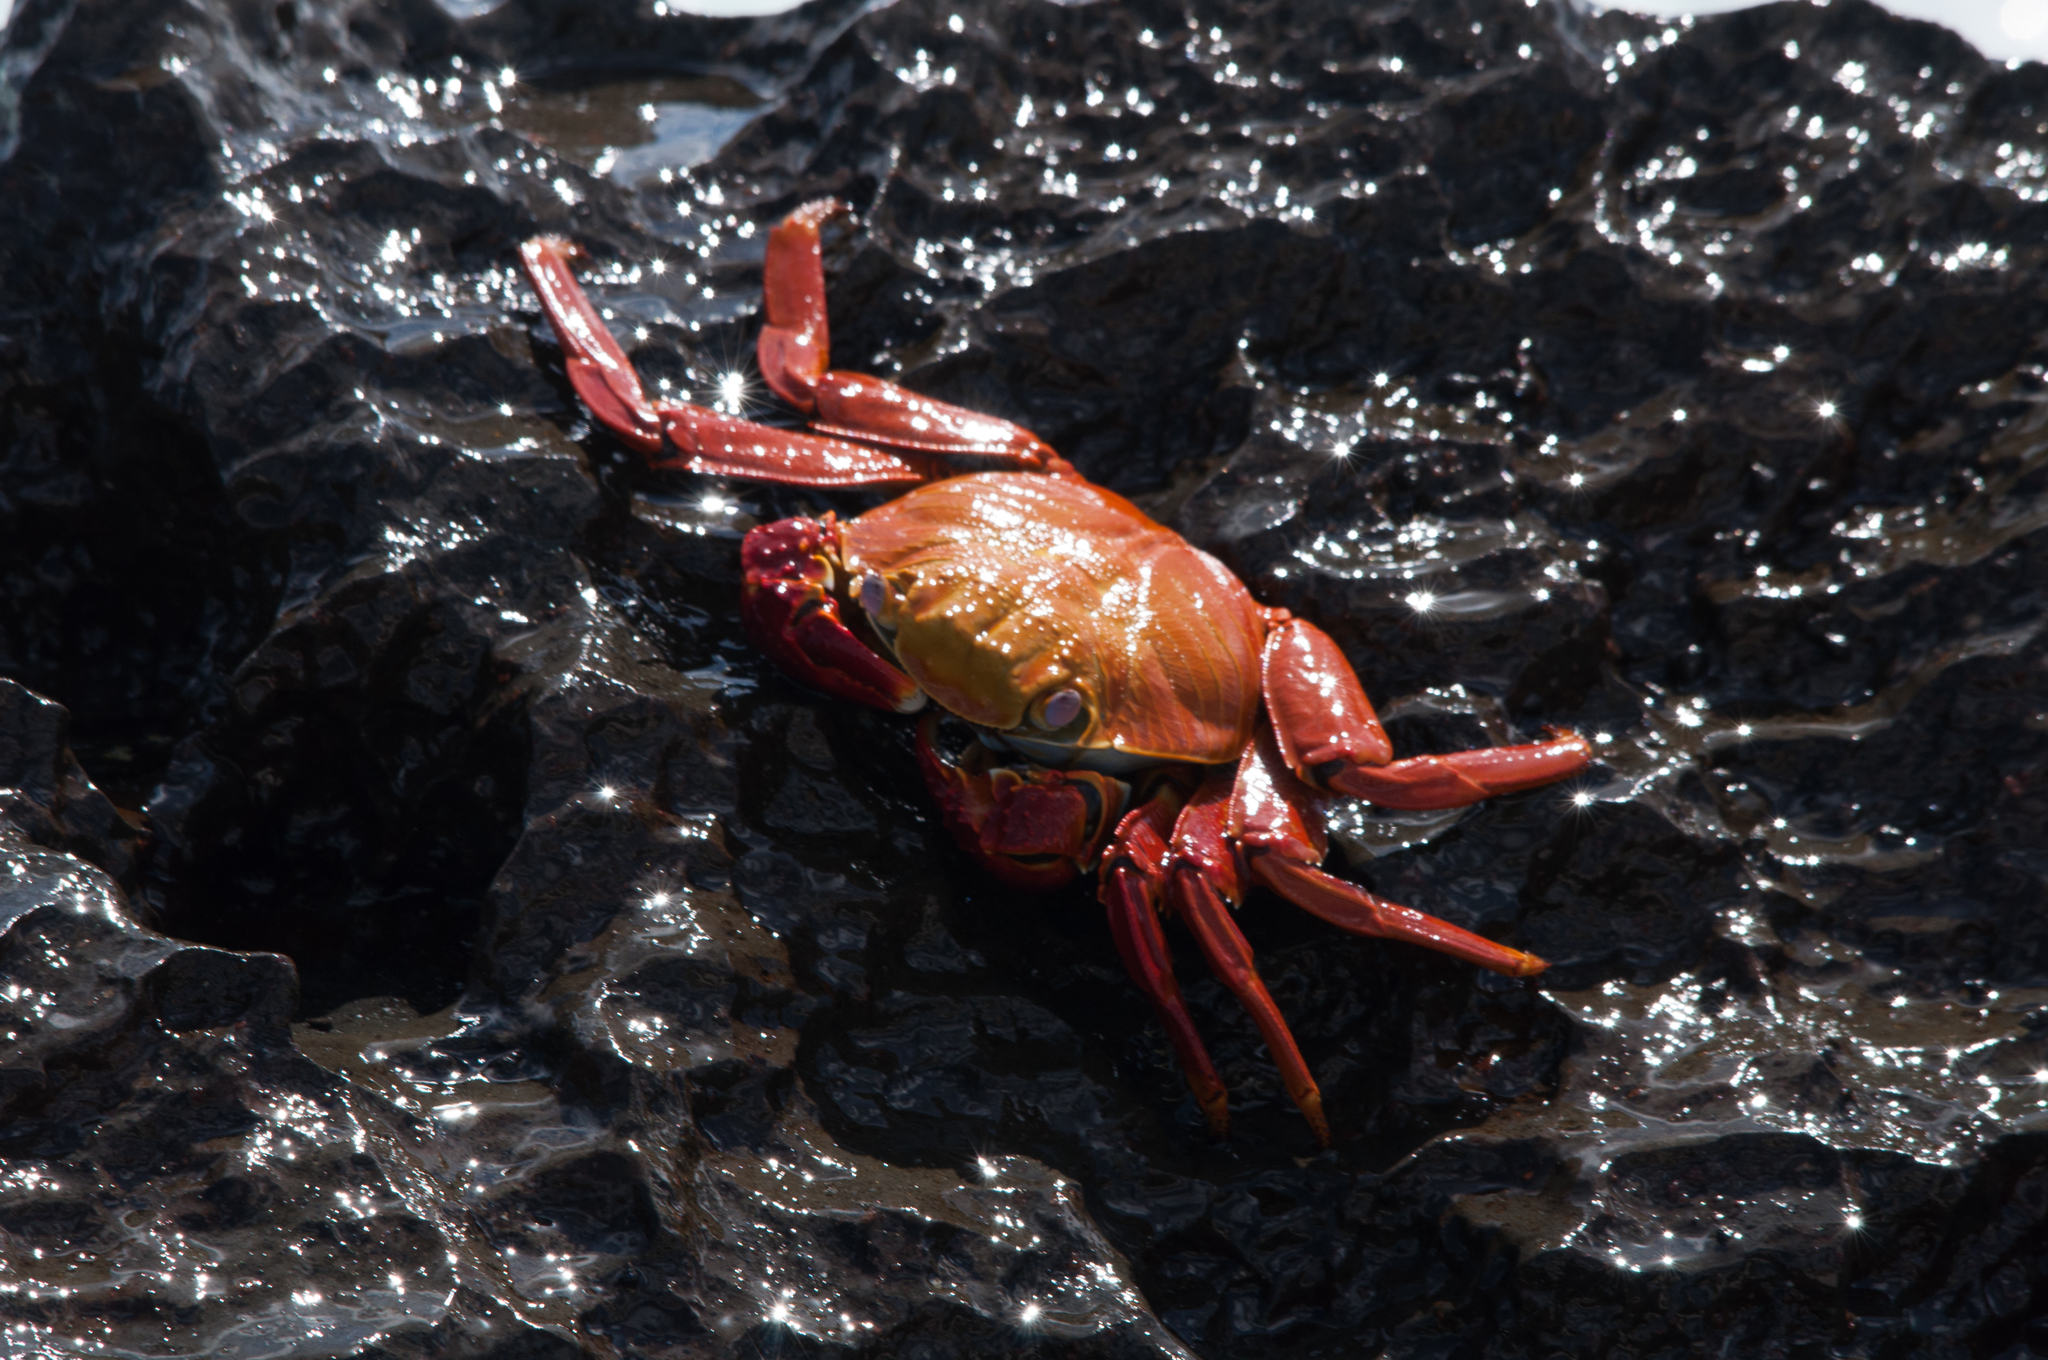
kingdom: Animalia
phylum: Arthropoda
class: Malacostraca
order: Decapoda
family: Grapsidae
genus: Grapsus
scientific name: Grapsus grapsus
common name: Sally lightfoot
